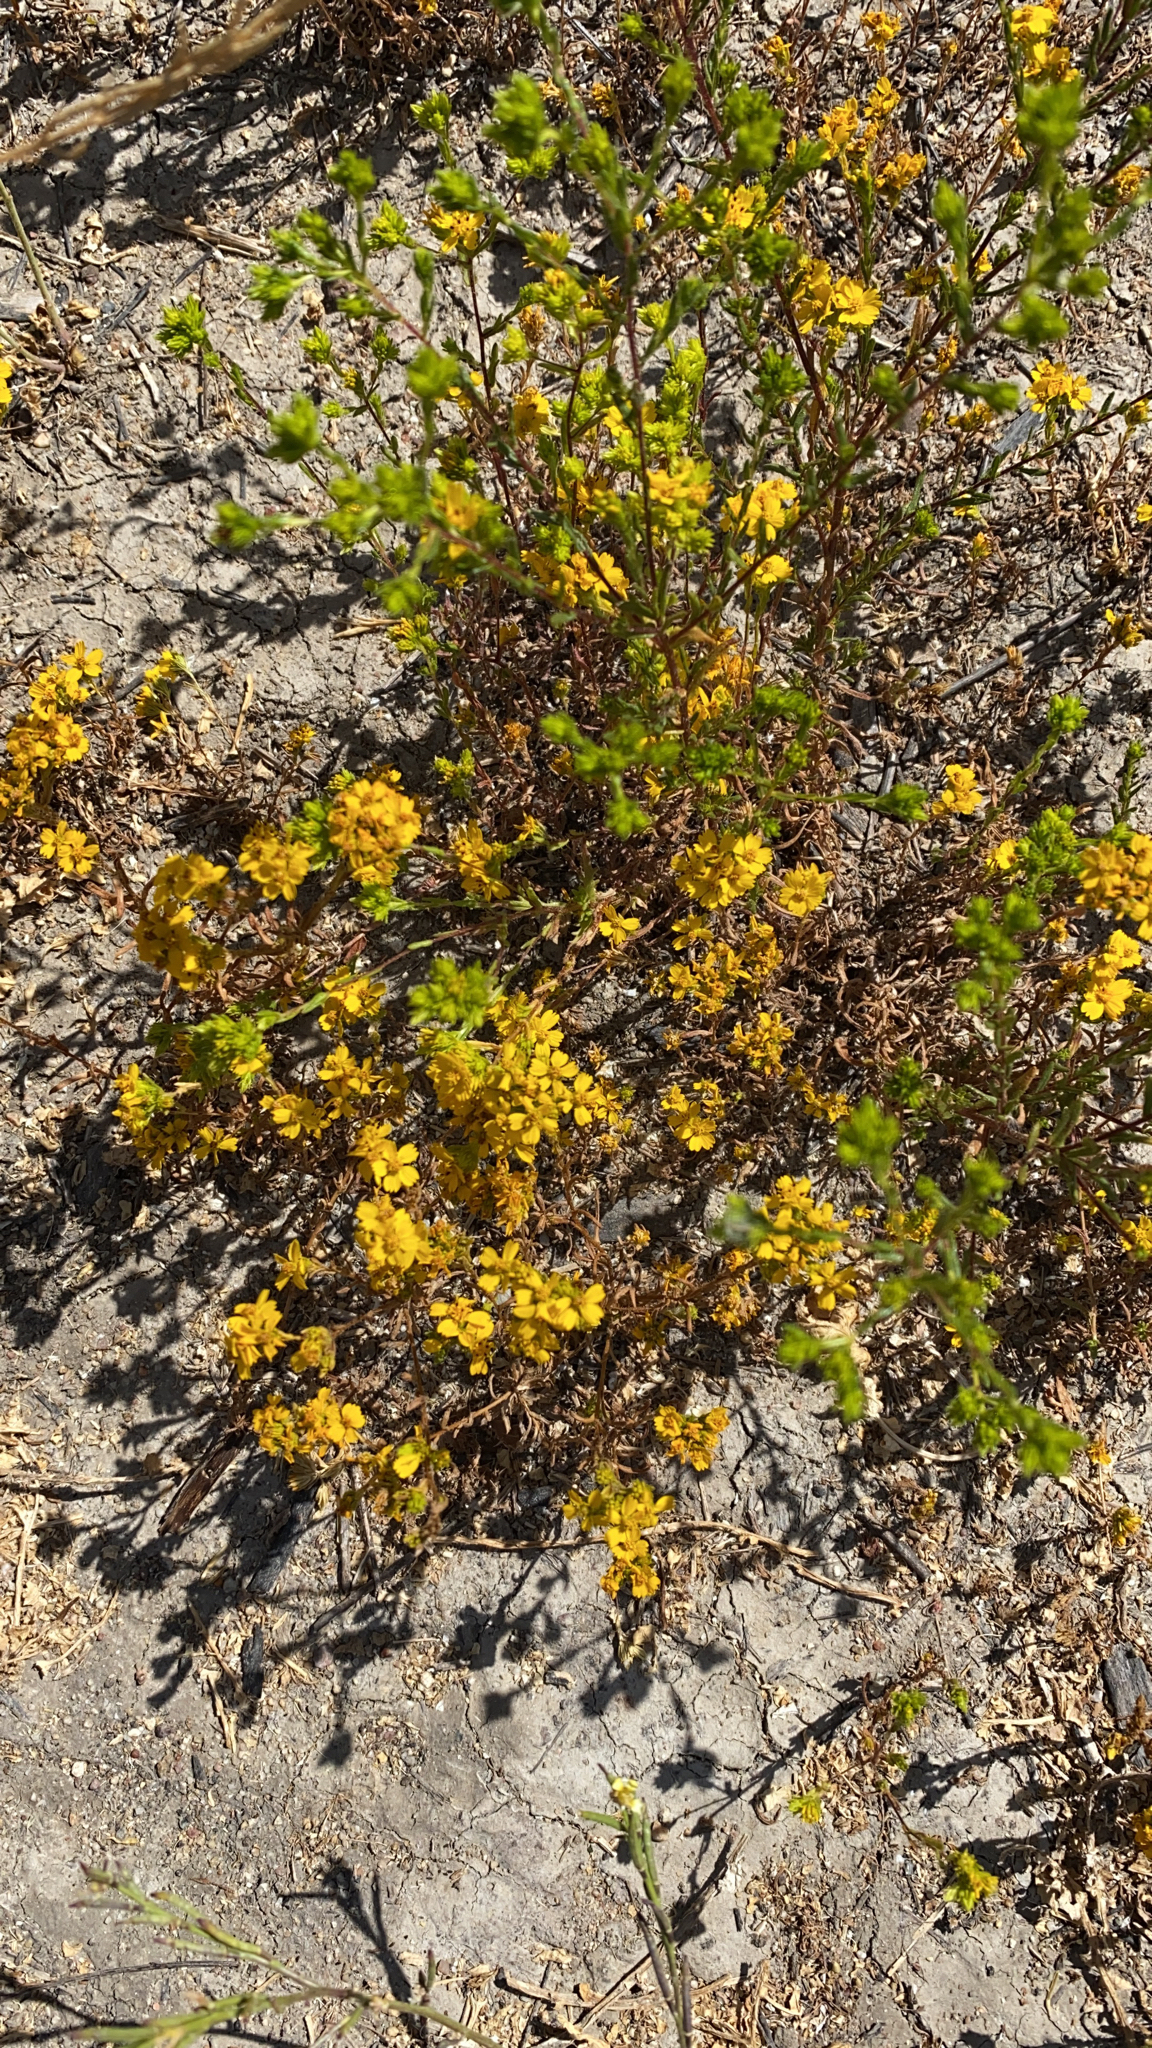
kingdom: Plantae
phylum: Tracheophyta
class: Magnoliopsida
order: Asterales
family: Asteraceae
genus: Deinandra
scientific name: Deinandra fasciculata
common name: Clustered tarweed
